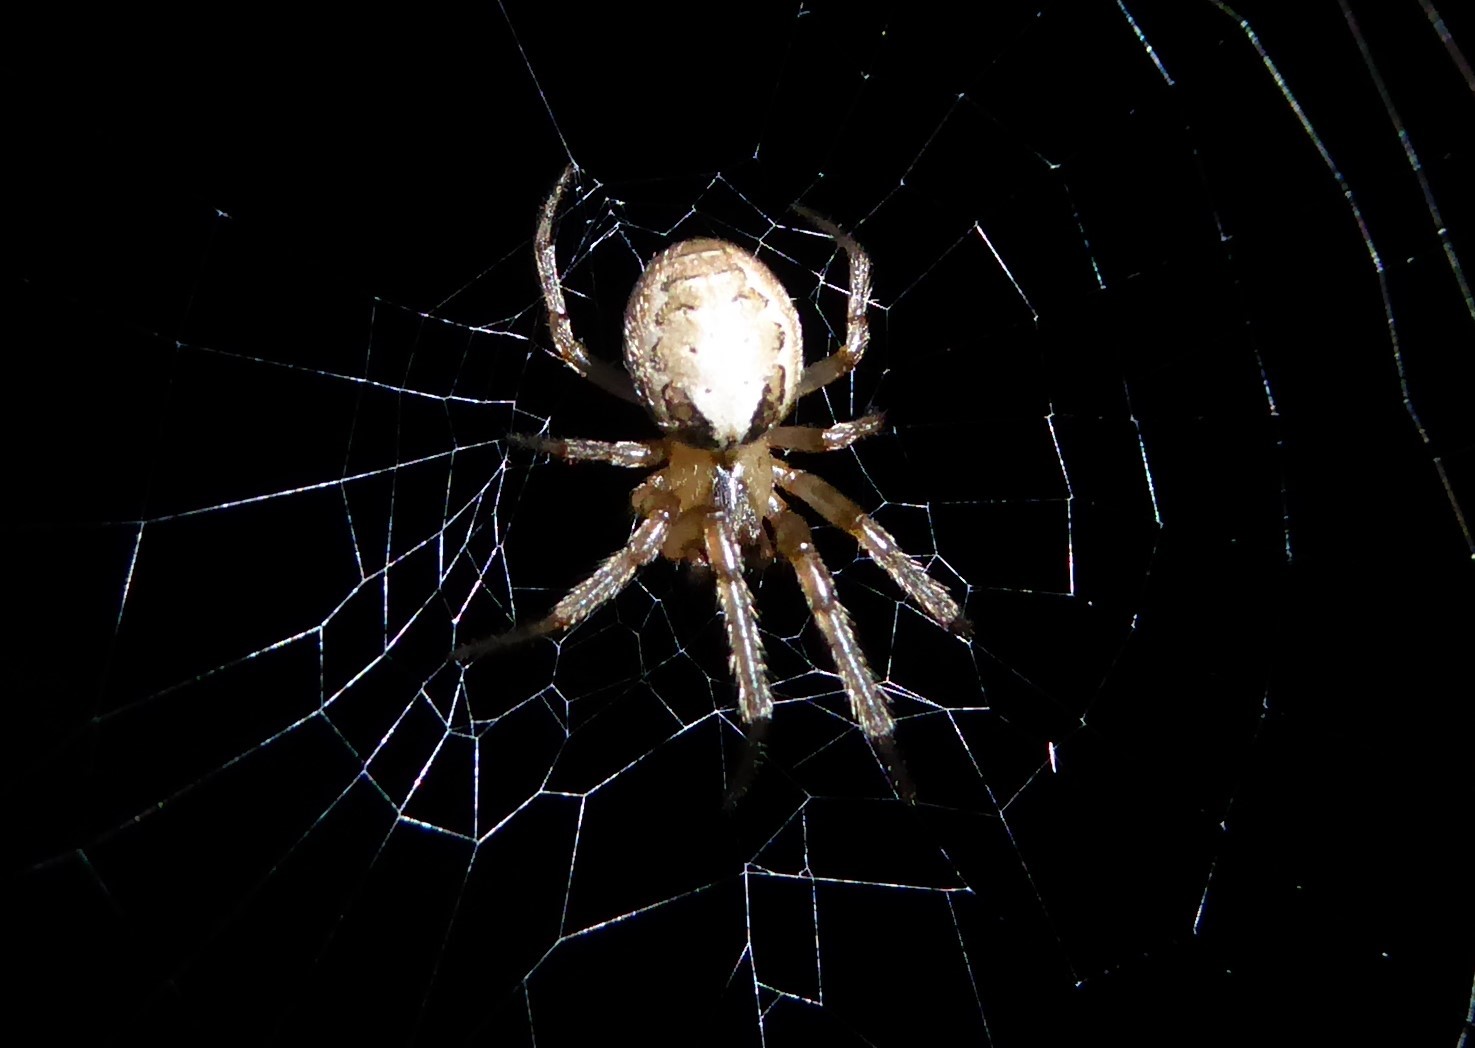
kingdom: Animalia
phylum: Arthropoda
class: Arachnida
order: Araneae
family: Araneidae
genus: Zygiella
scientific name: Zygiella x-notata
